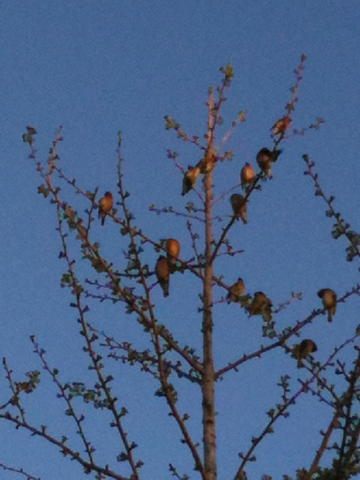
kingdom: Animalia
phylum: Chordata
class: Aves
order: Passeriformes
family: Bombycillidae
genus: Bombycilla
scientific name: Bombycilla cedrorum
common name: Cedar waxwing
